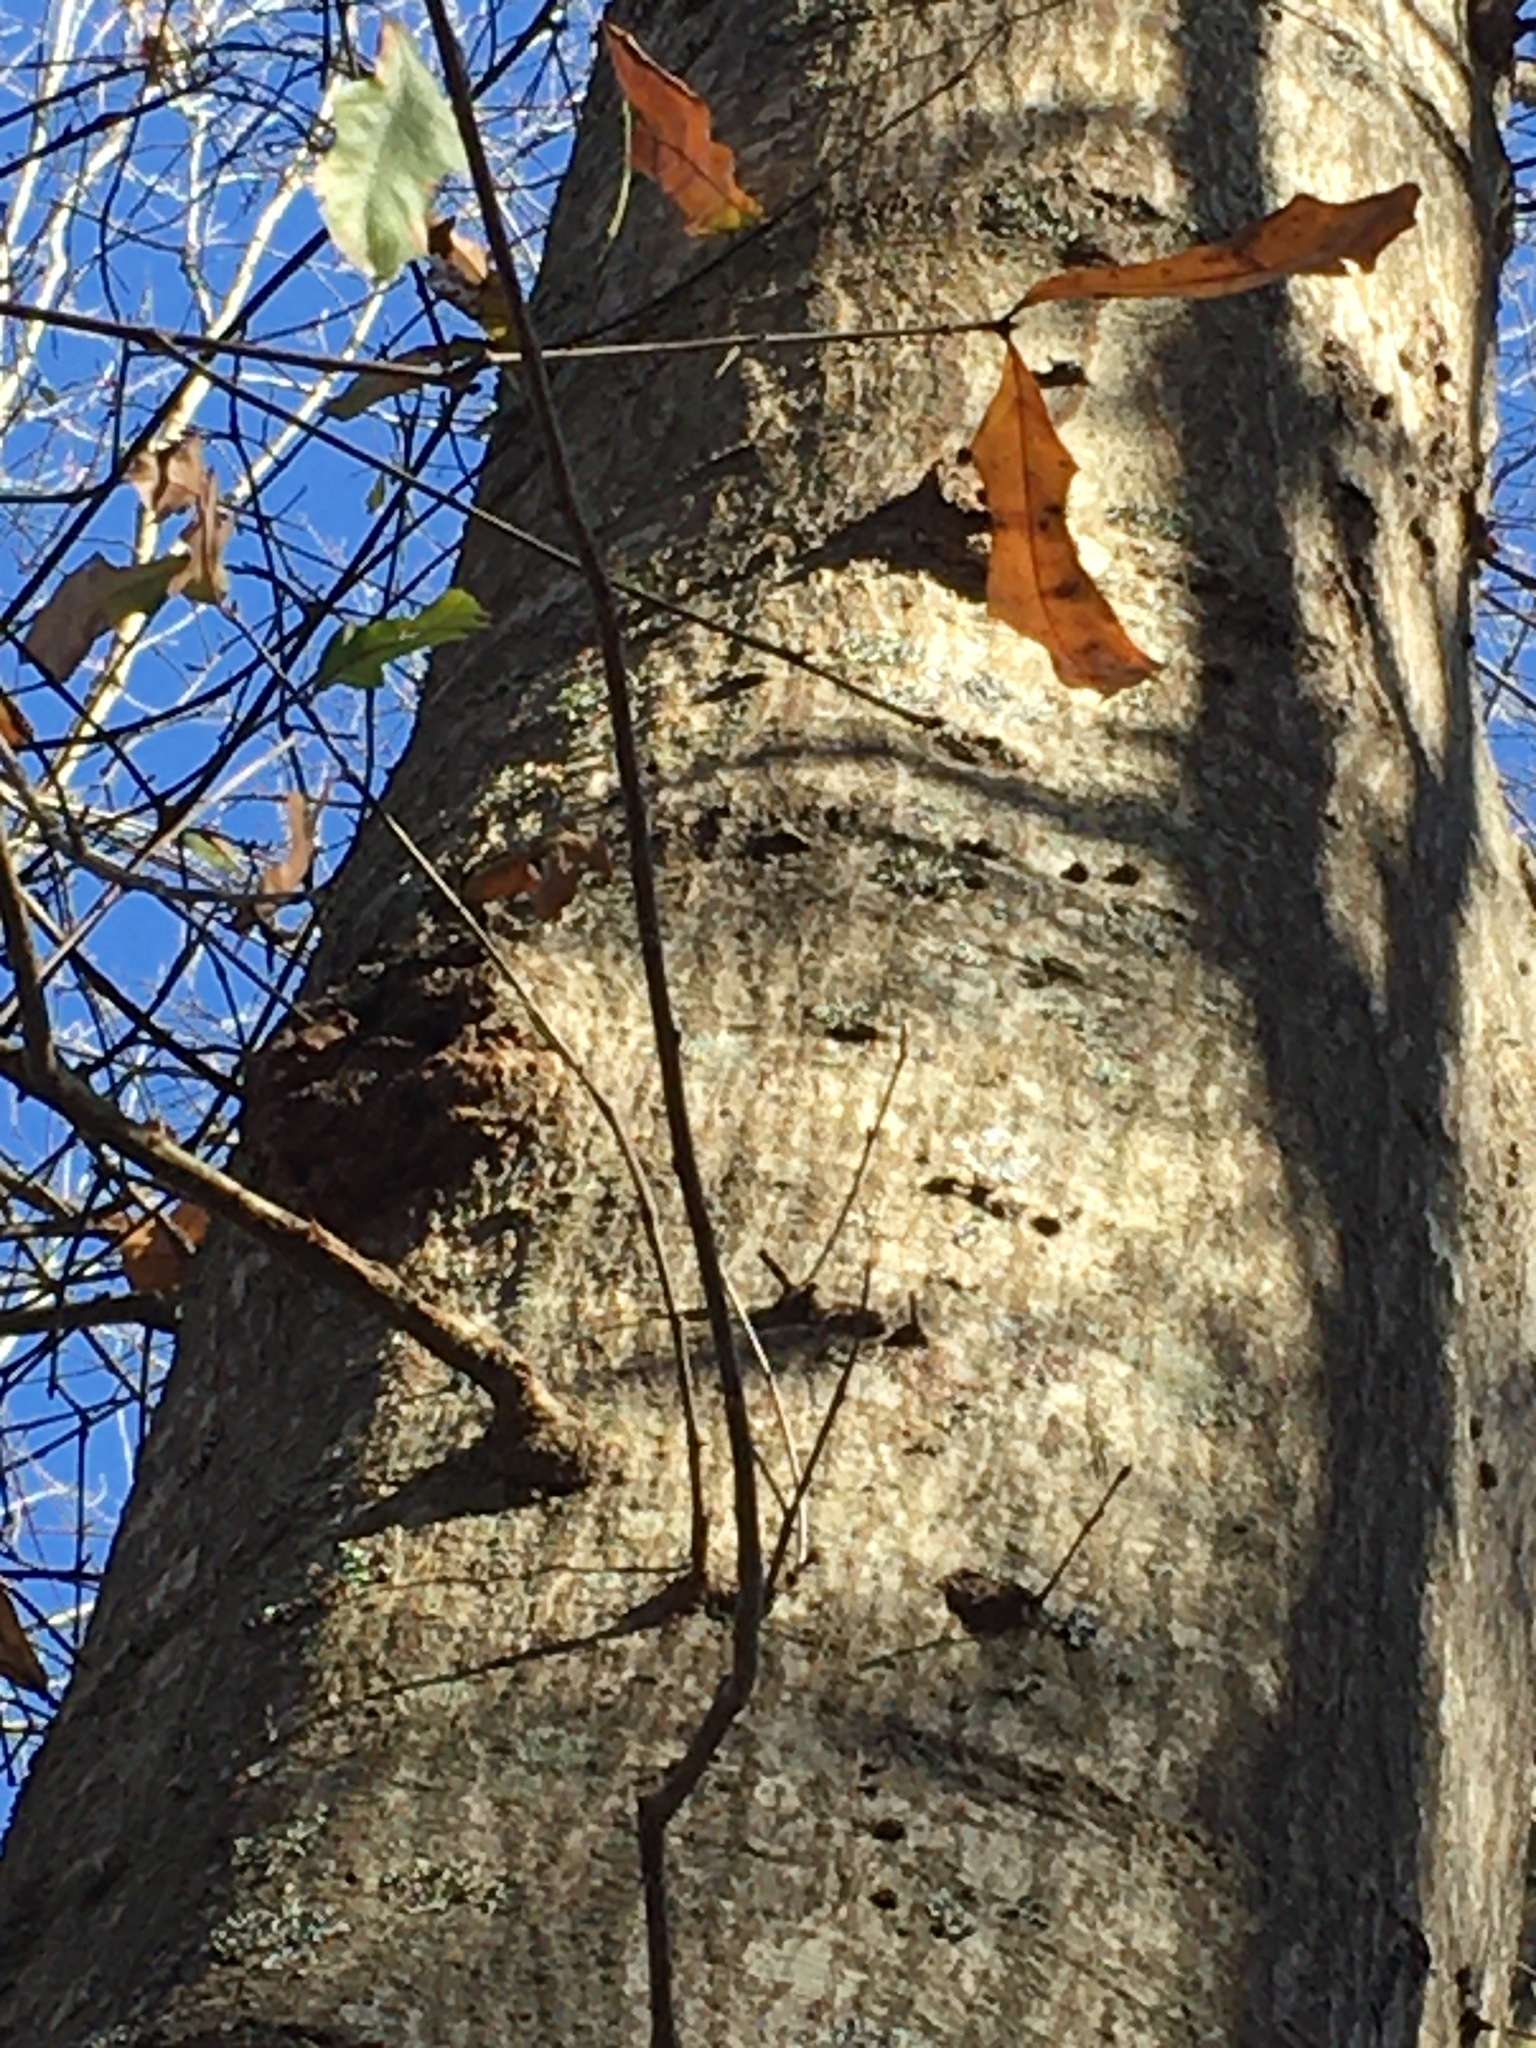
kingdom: Plantae
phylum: Tracheophyta
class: Magnoliopsida
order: Fagales
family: Fagaceae
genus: Quercus
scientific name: Quercus nigra
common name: Water oak
